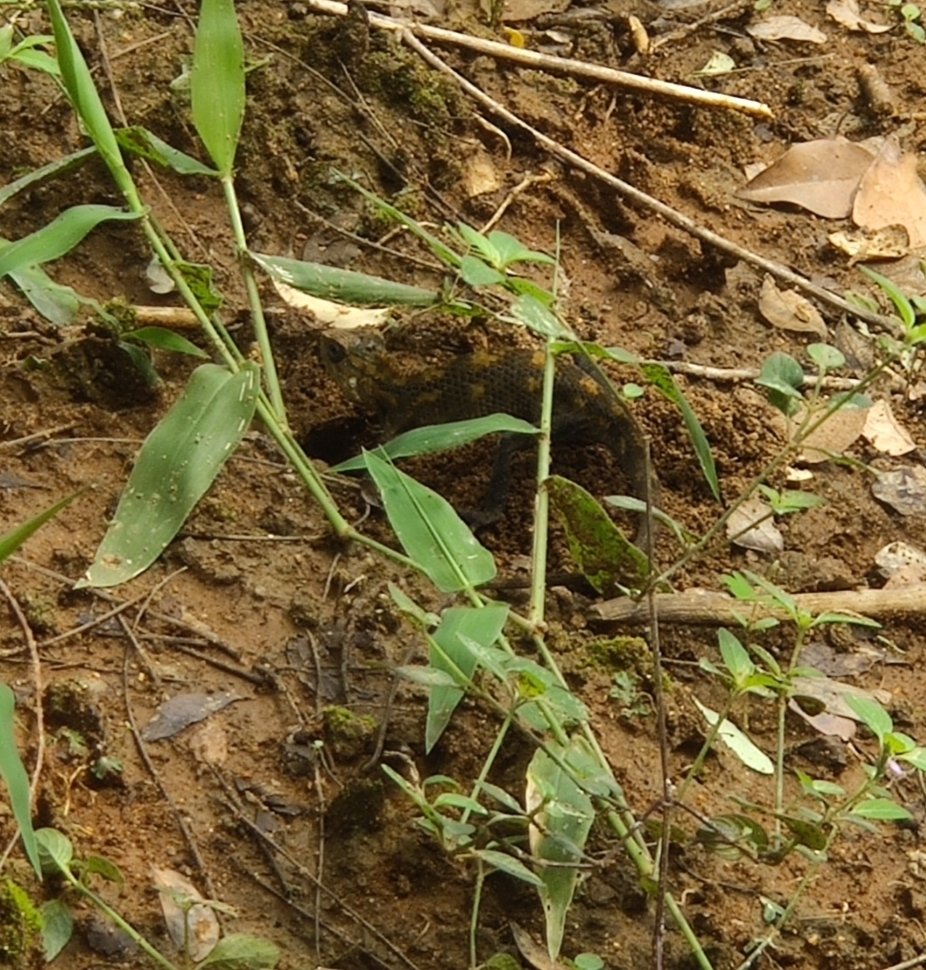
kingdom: Animalia
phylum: Chordata
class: Squamata
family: Agamidae
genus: Calotes
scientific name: Calotes versicolor
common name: Oriental garden lizard
